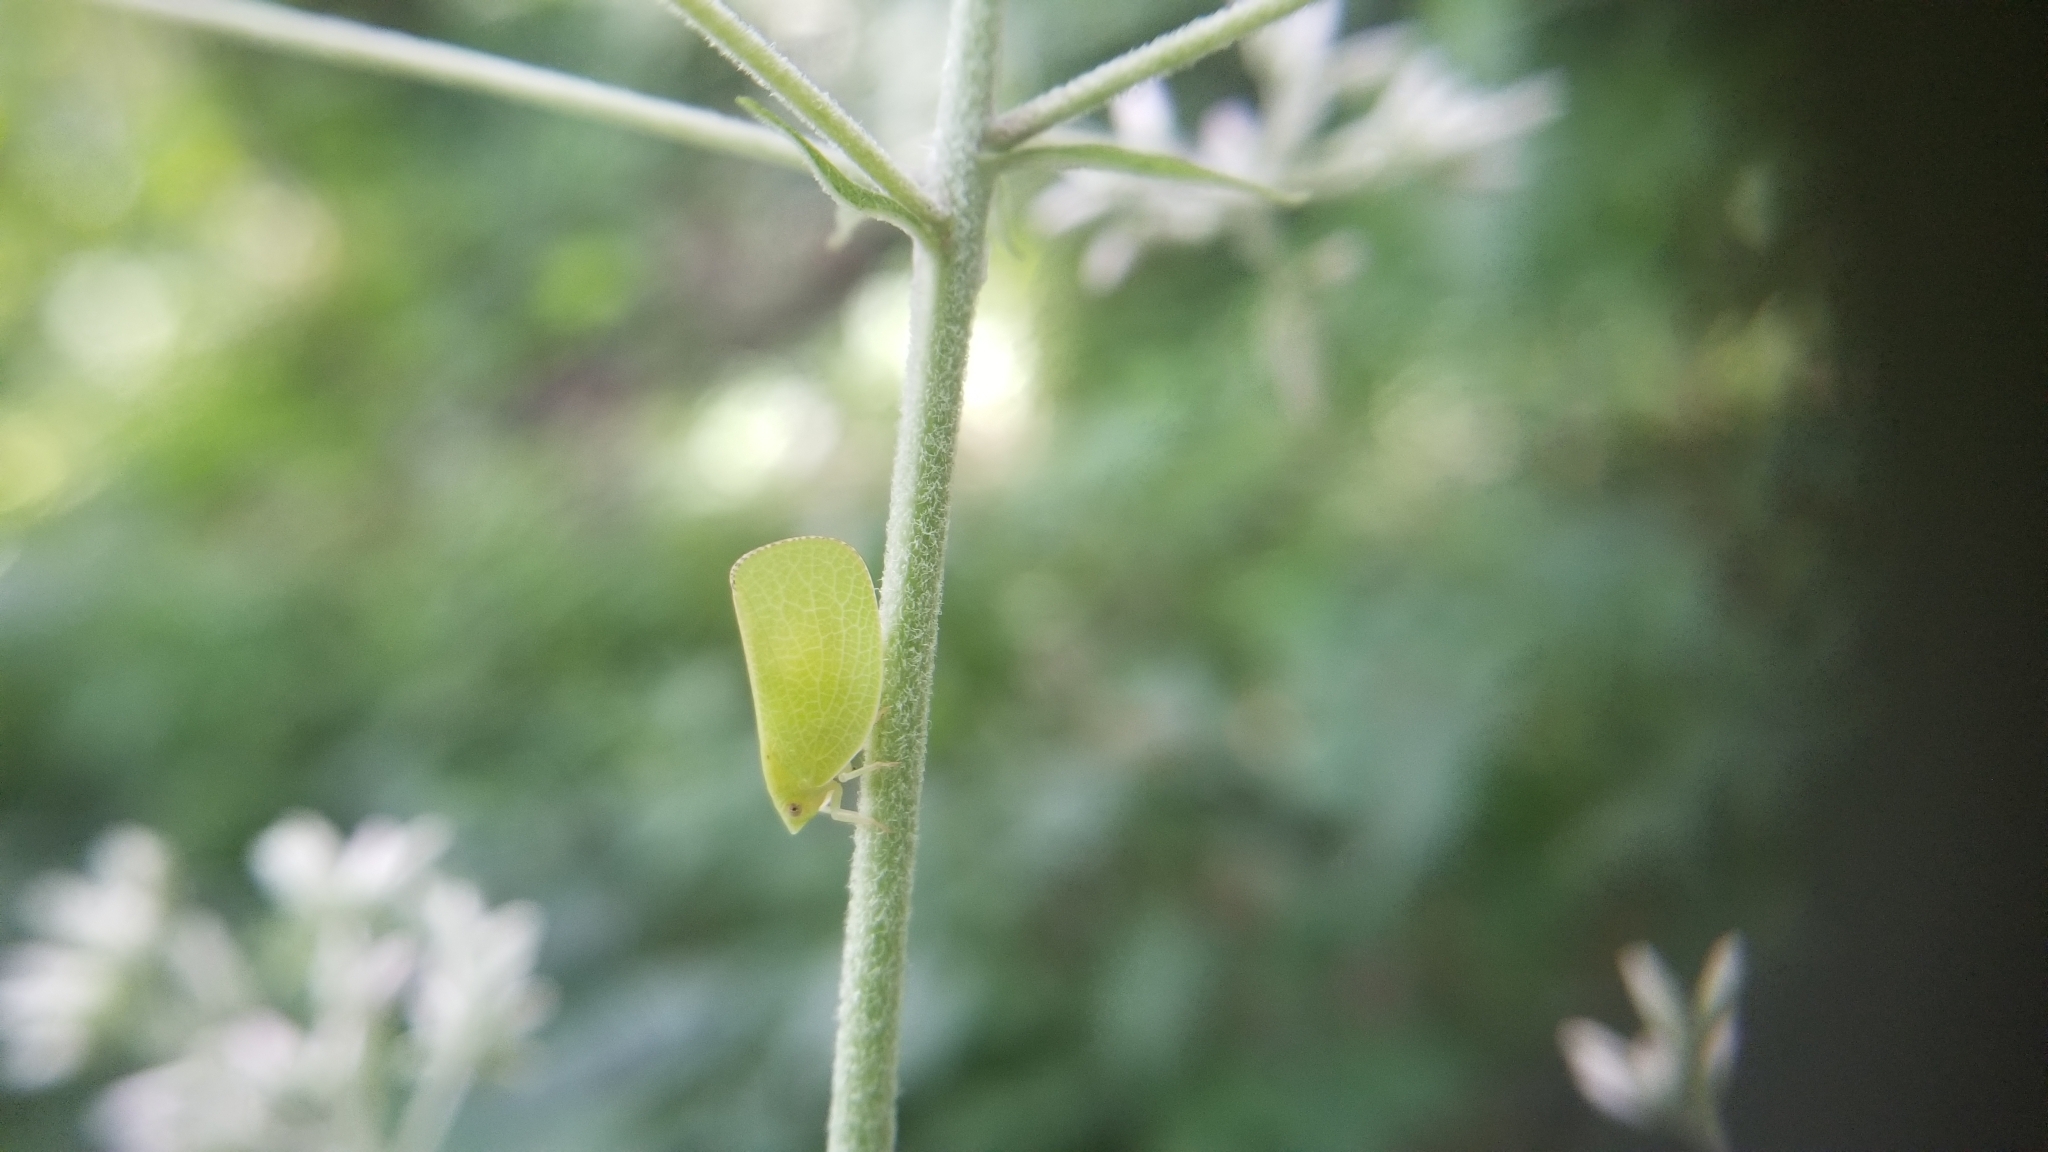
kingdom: Animalia
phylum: Arthropoda
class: Insecta
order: Hemiptera
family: Acanaloniidae
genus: Acanalonia
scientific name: Acanalonia conica
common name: Green cone-headed planthopper
